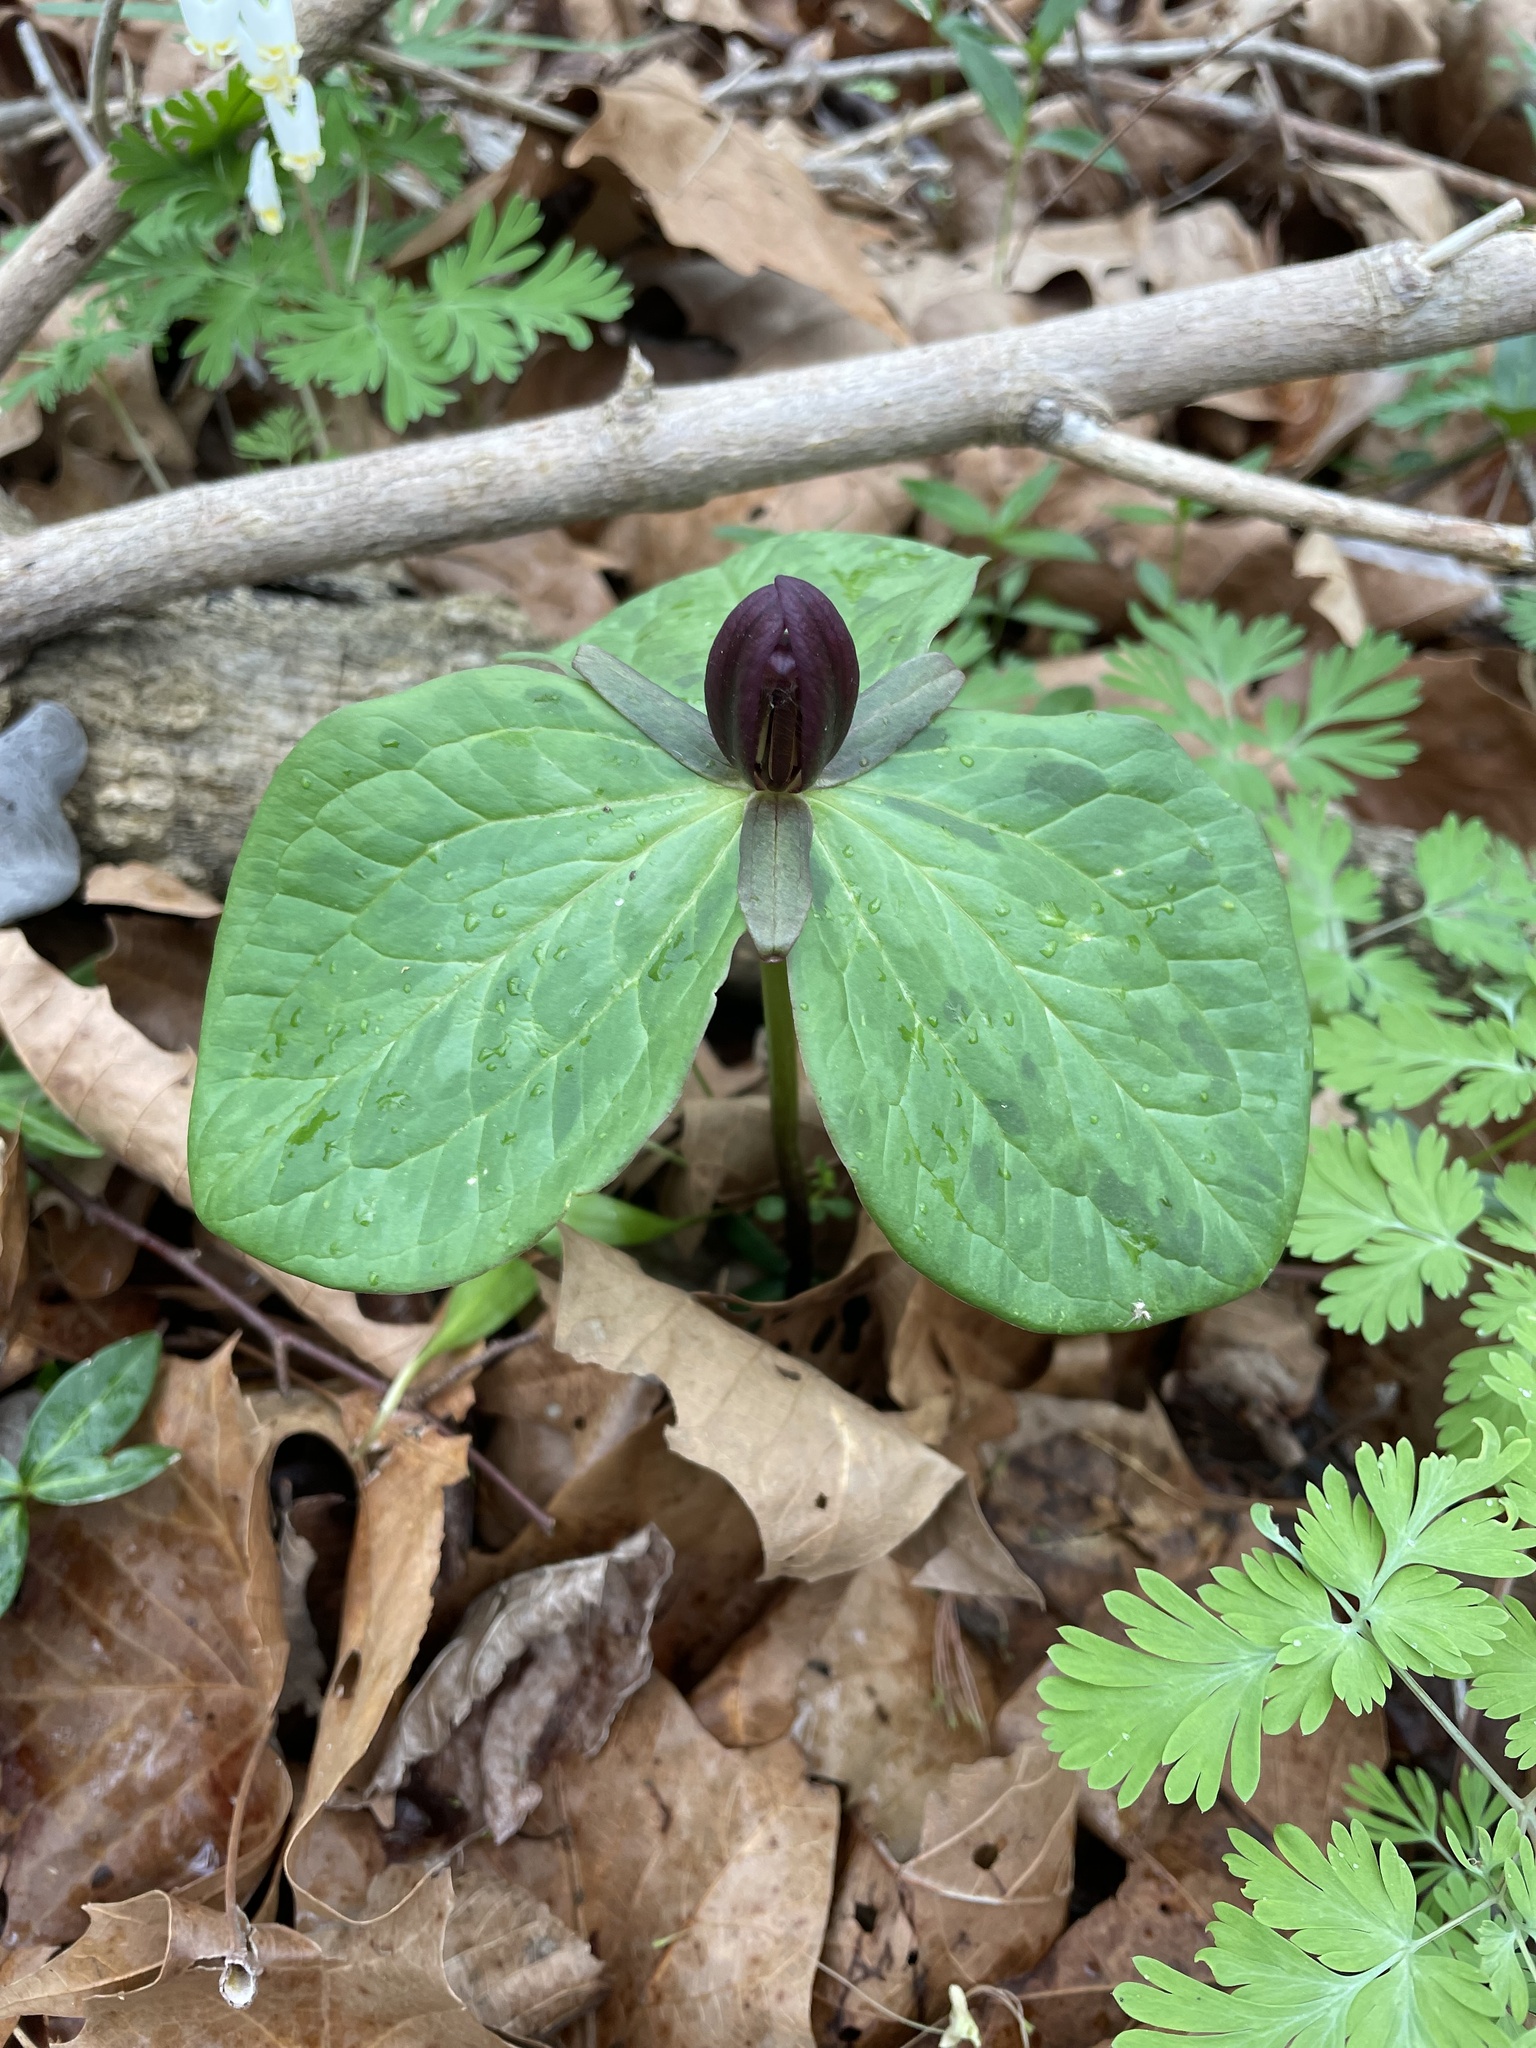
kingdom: Plantae
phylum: Tracheophyta
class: Liliopsida
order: Liliales
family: Melanthiaceae
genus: Trillium
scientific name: Trillium sessile
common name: Sessile trillium
